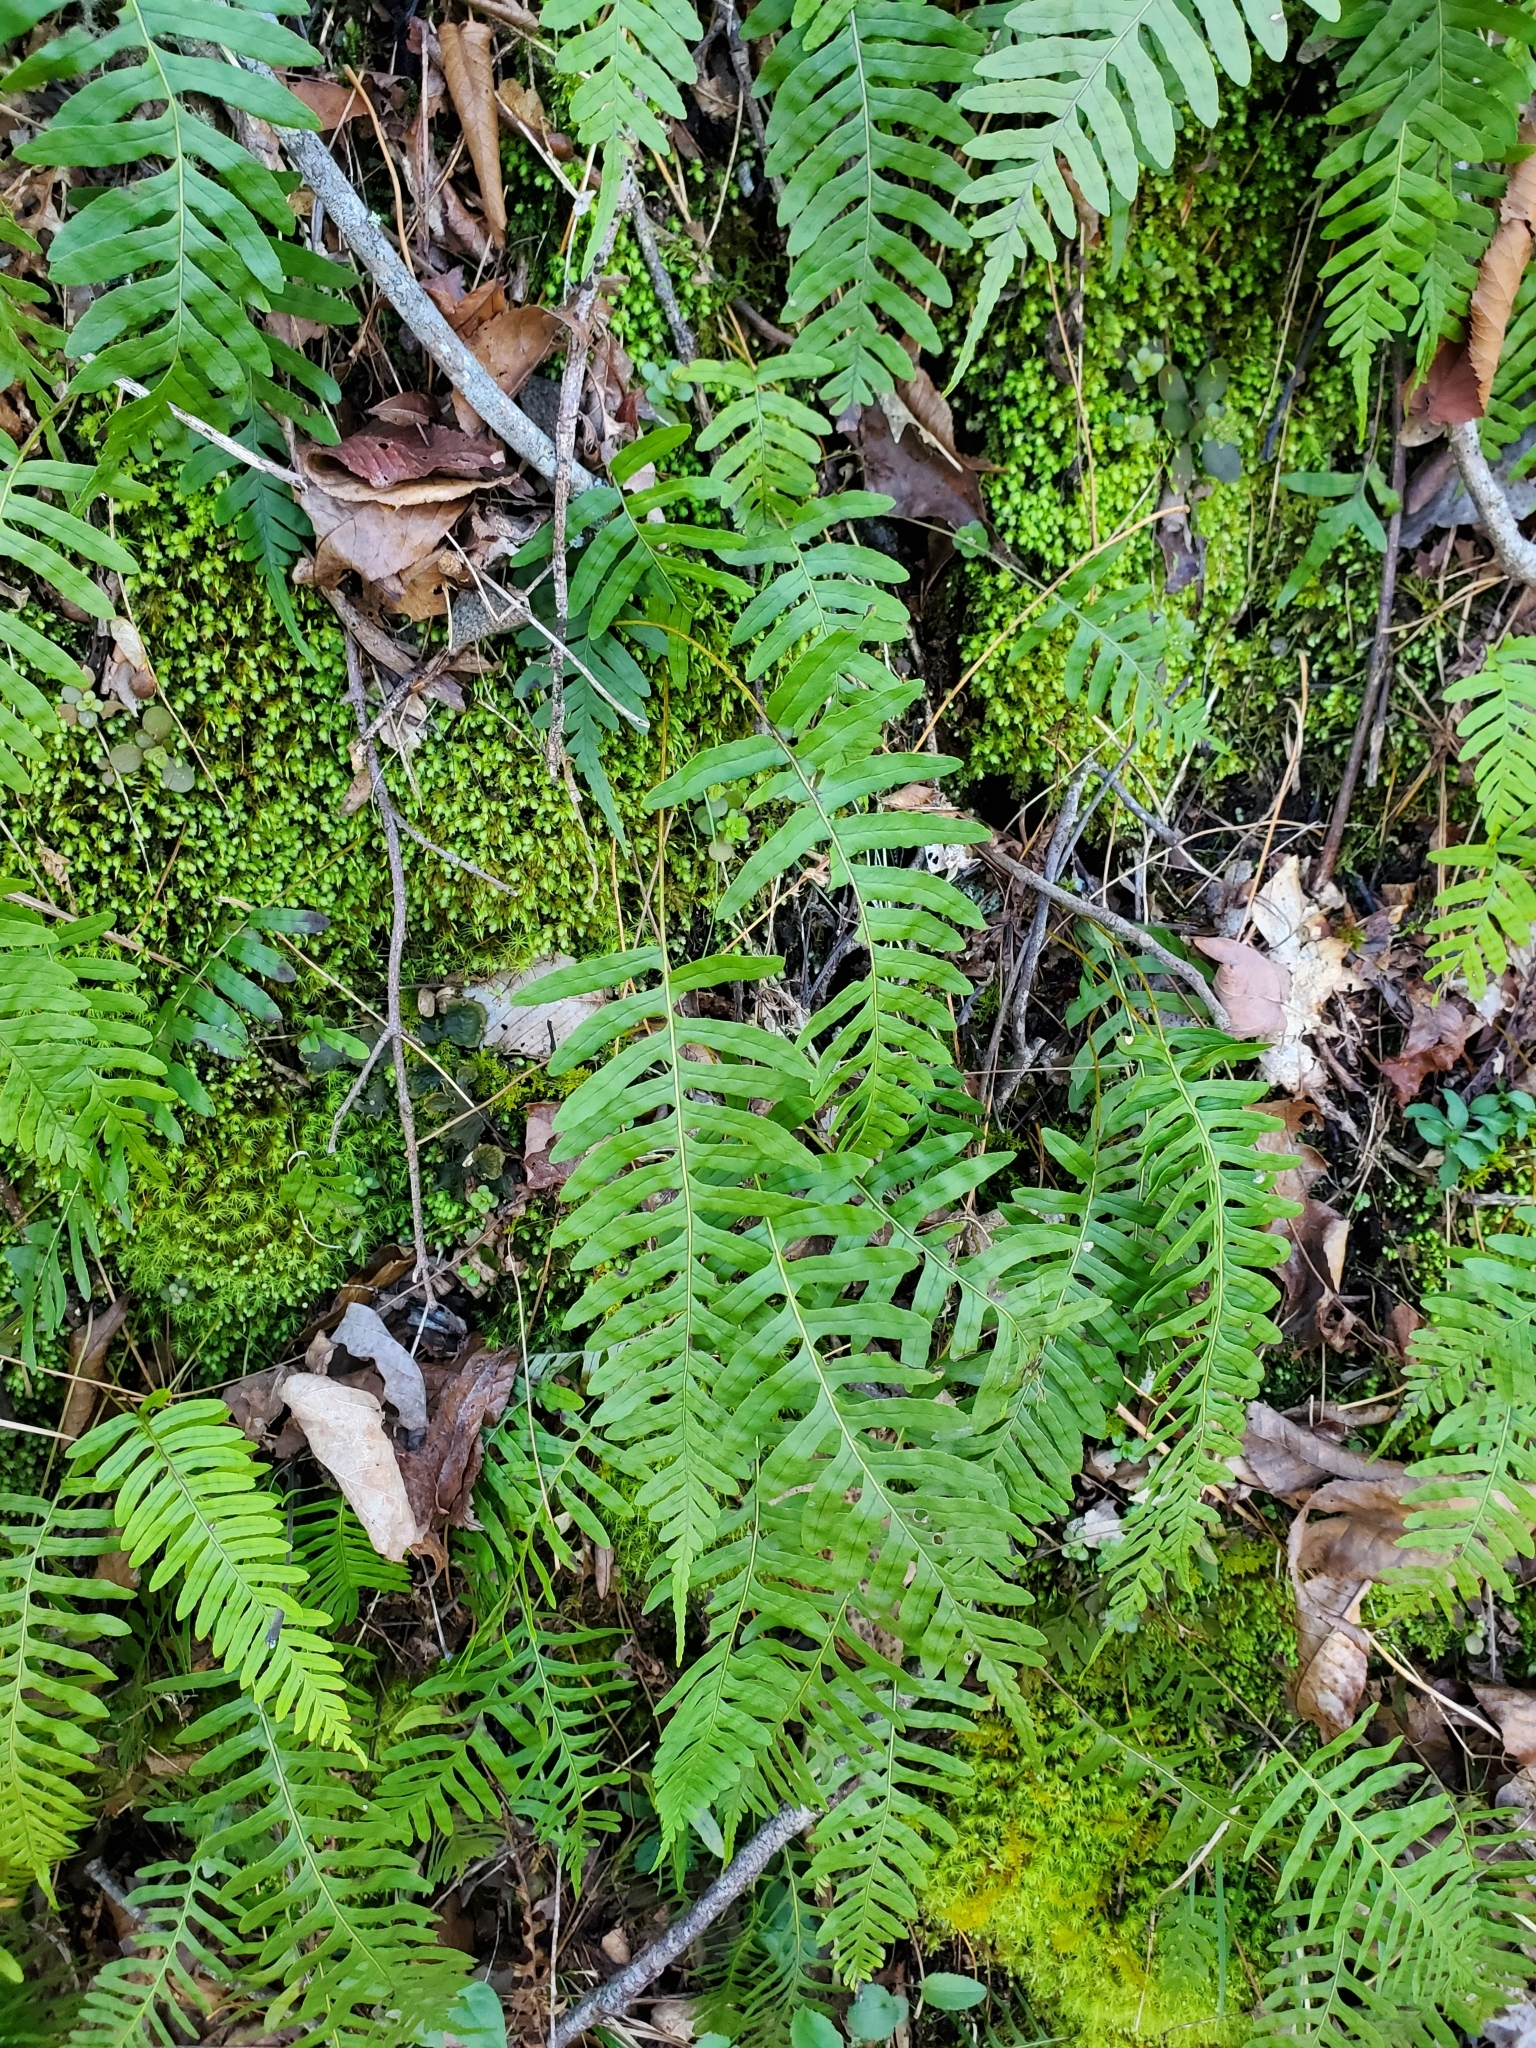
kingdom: Plantae
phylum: Tracheophyta
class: Polypodiopsida
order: Polypodiales
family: Polypodiaceae
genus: Polypodium
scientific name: Polypodium appalachianum
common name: Appalachian polypody
